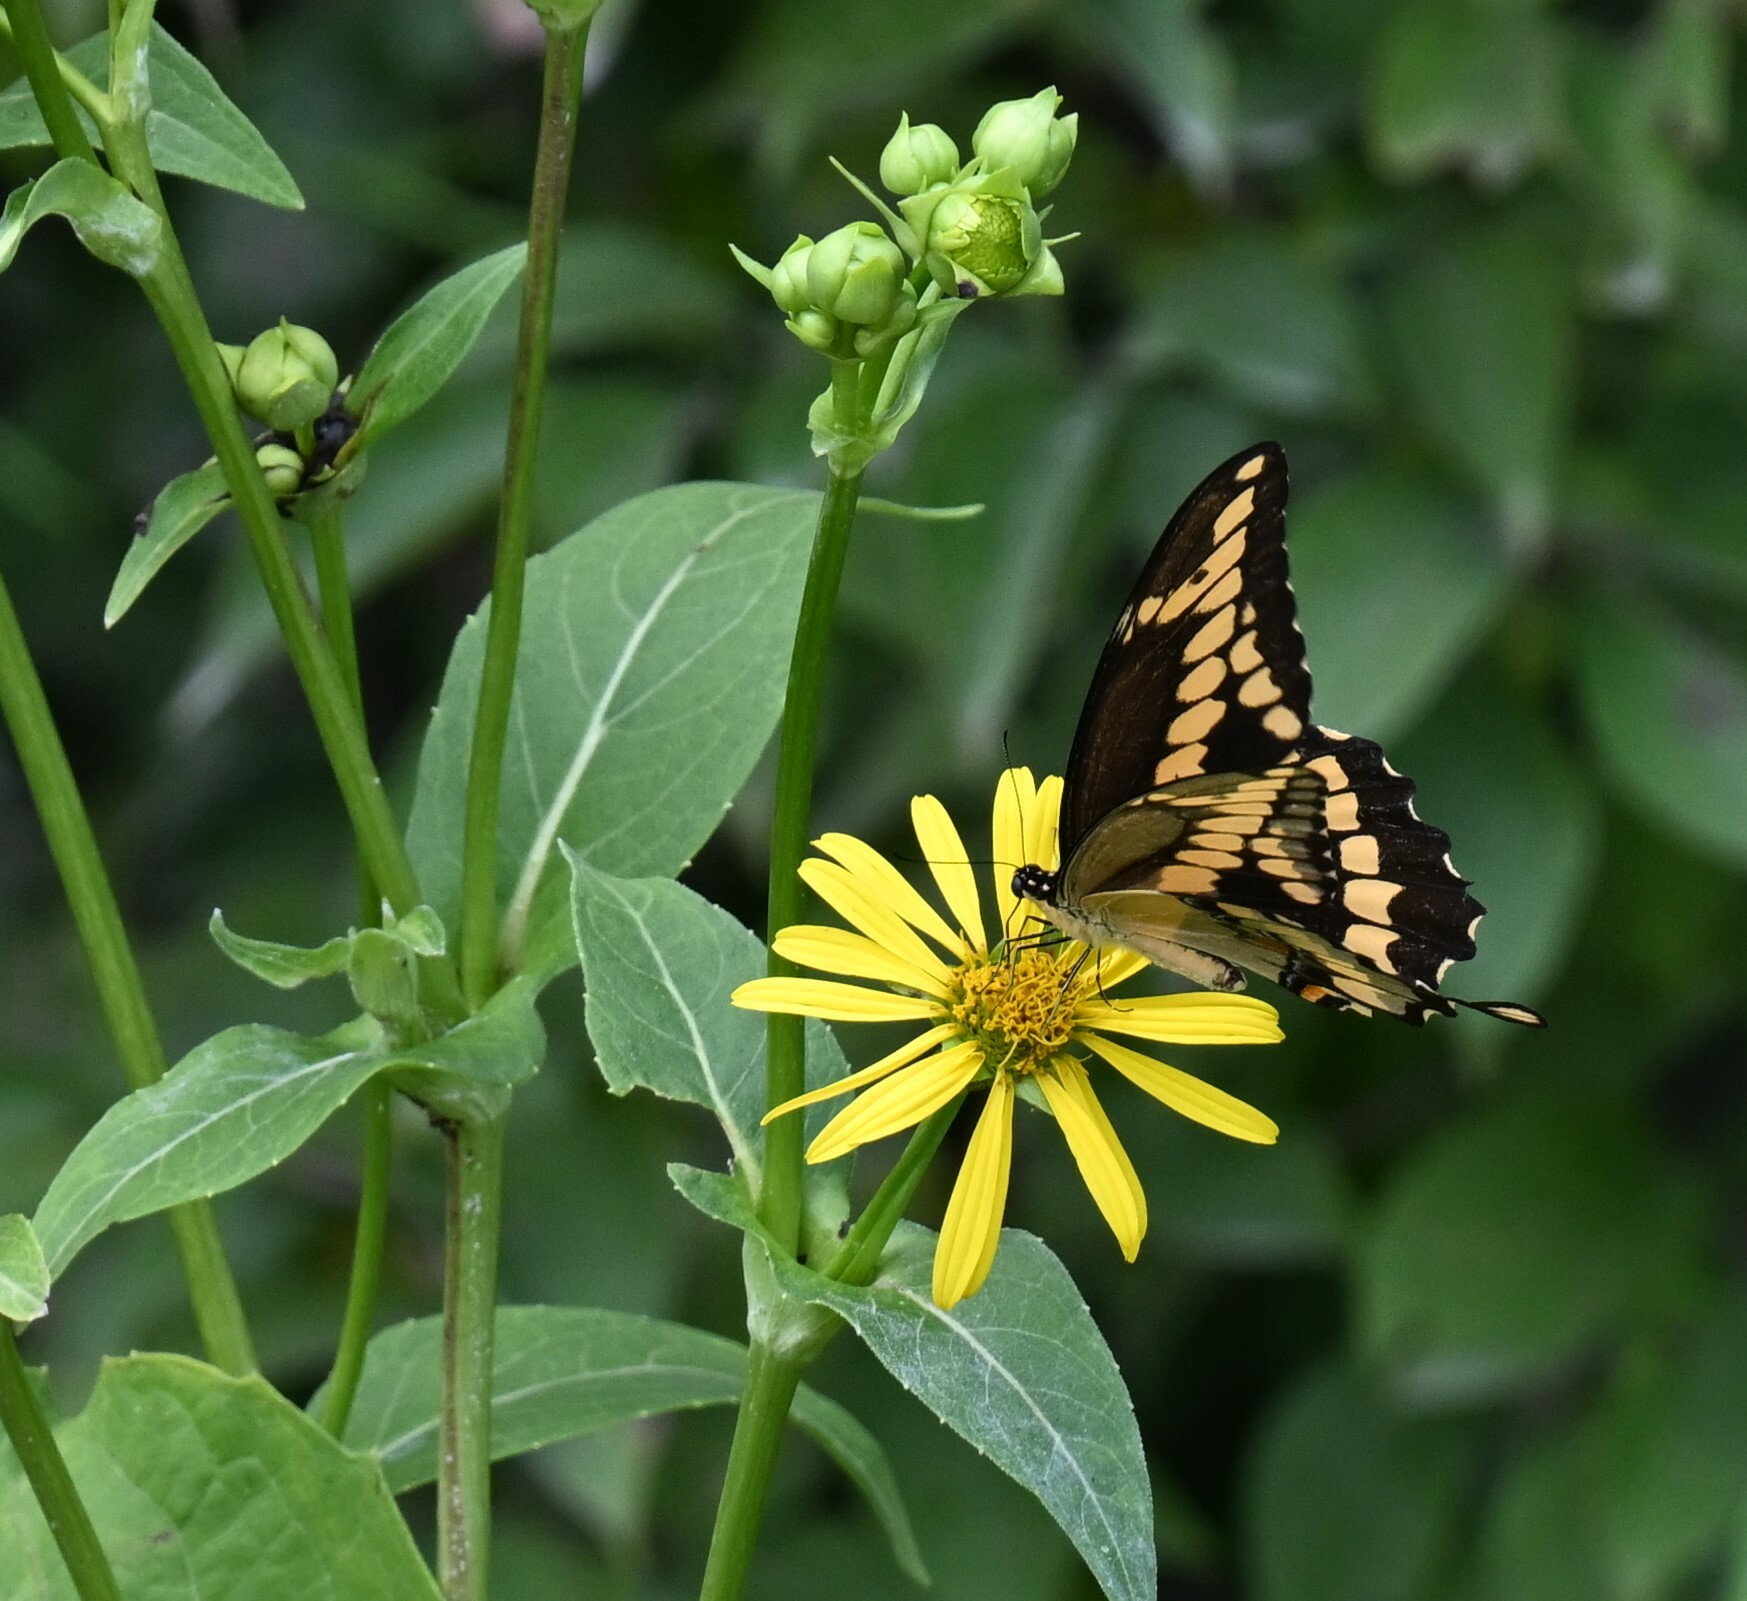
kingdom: Animalia
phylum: Arthropoda
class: Insecta
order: Lepidoptera
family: Papilionidae
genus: Papilio
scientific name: Papilio cresphontes
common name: Giant swallowtail
